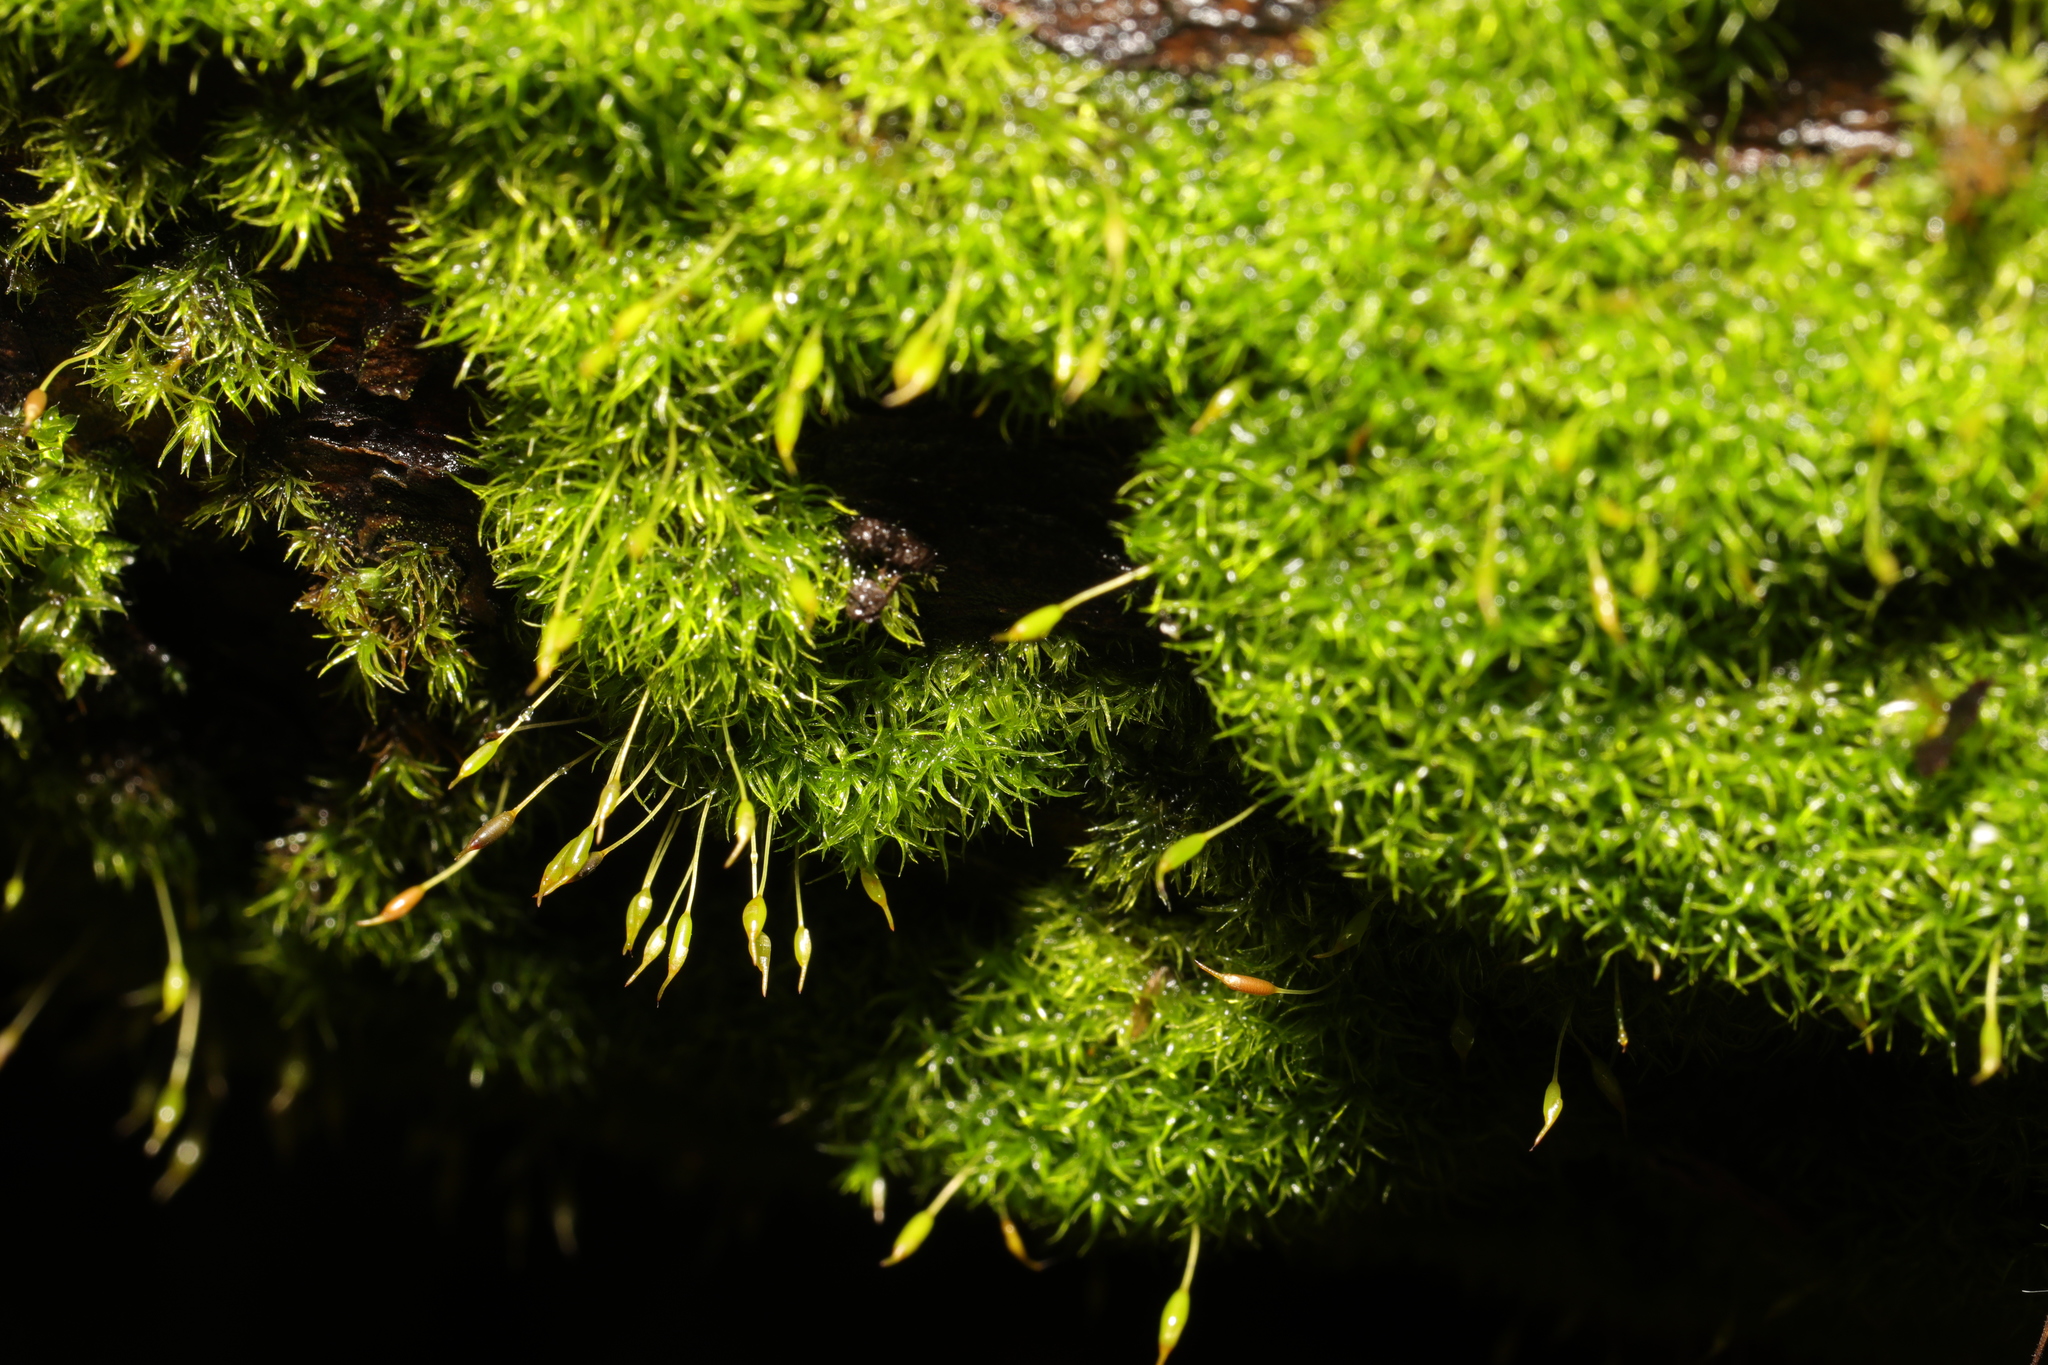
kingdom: Plantae
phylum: Bryophyta
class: Bryopsida
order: Dicranales
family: Rhabdoweisiaceae
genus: Dicranoweisia
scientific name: Dicranoweisia cirrata
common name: Common pincushion
